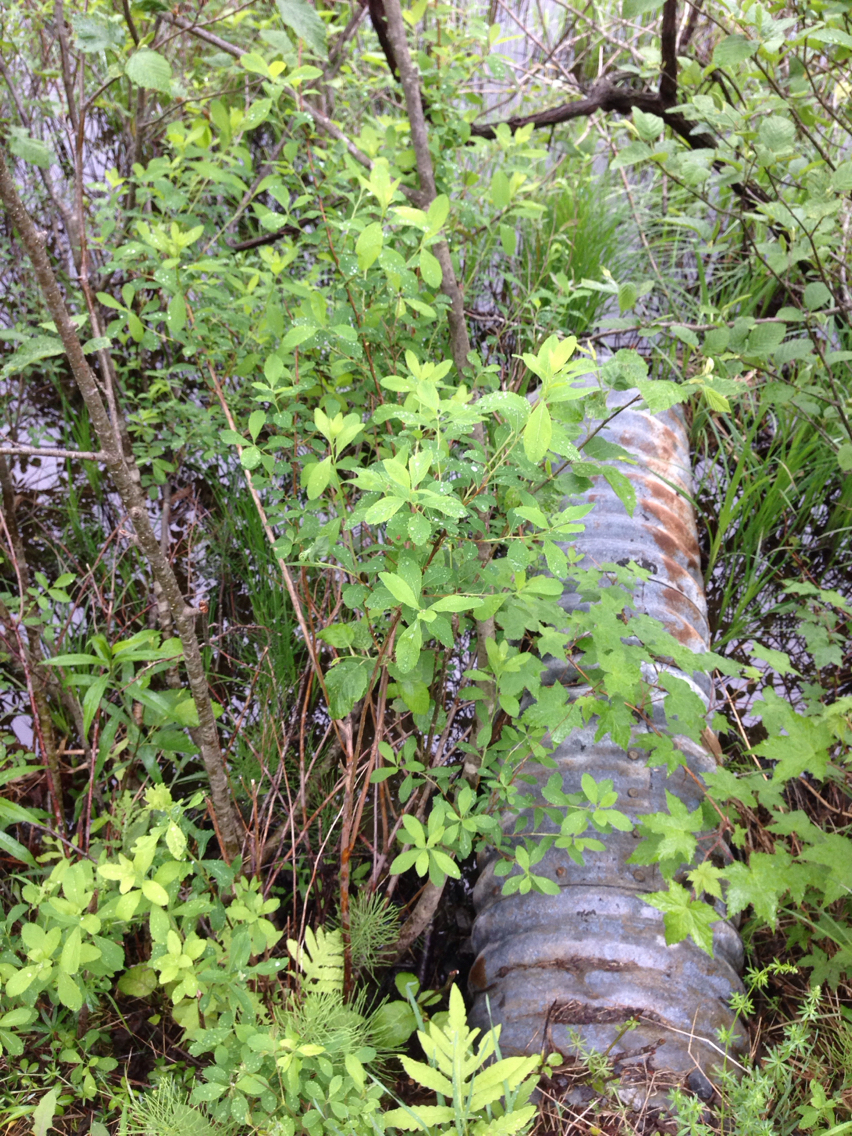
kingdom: Plantae
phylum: Tracheophyta
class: Magnoliopsida
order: Rosales
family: Rosaceae
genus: Spiraea
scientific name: Spiraea alba
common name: Pale bridewort
